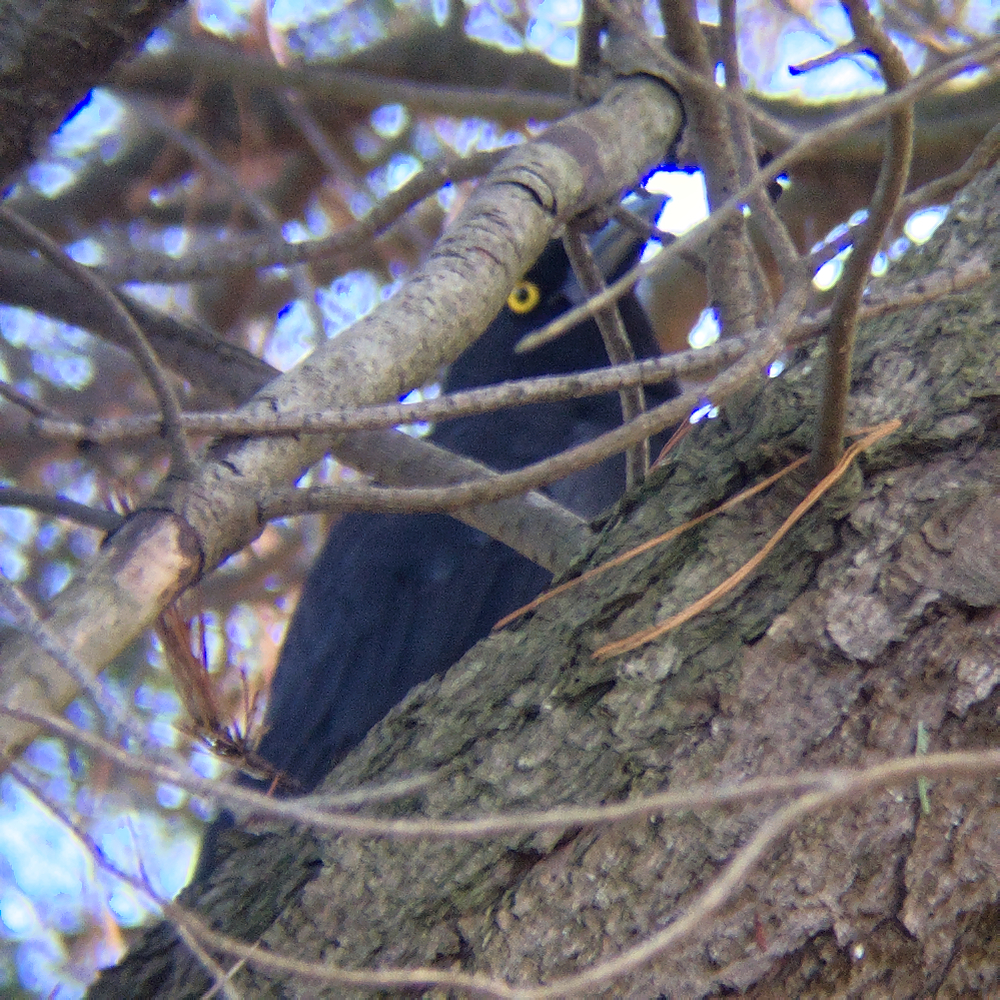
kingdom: Animalia
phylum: Chordata
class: Aves
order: Passeriformes
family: Cracticidae
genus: Strepera
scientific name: Strepera graculina
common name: Pied currawong
